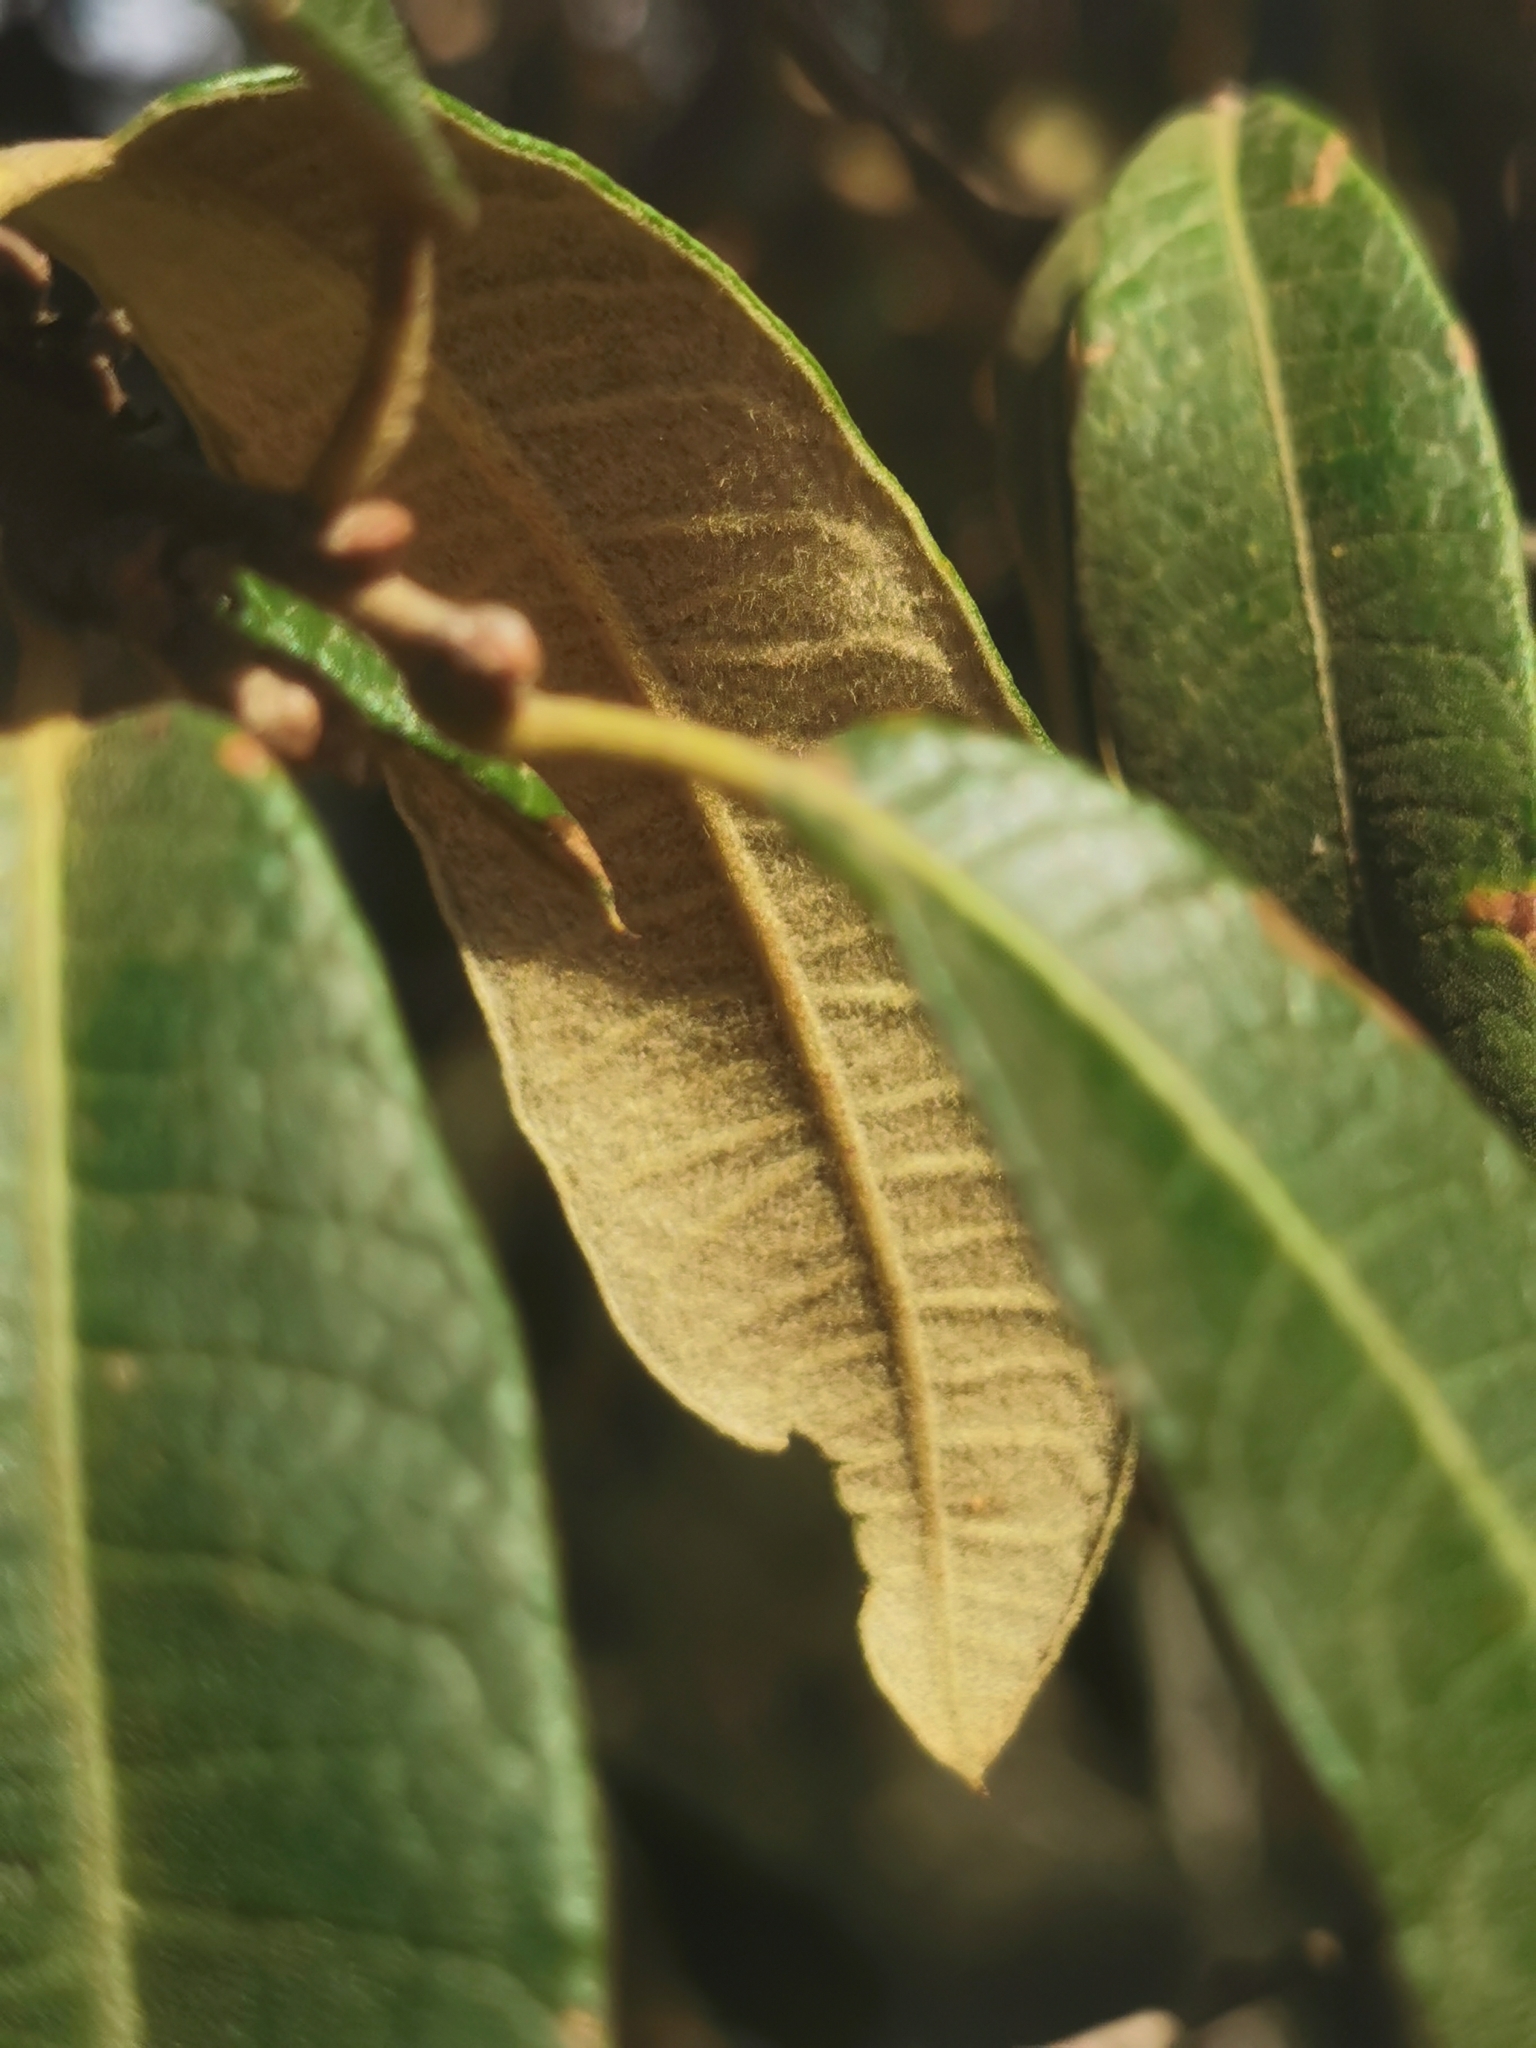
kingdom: Plantae
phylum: Tracheophyta
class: Magnoliopsida
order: Fagales
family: Fagaceae
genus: Quercus
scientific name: Quercus crassipes
